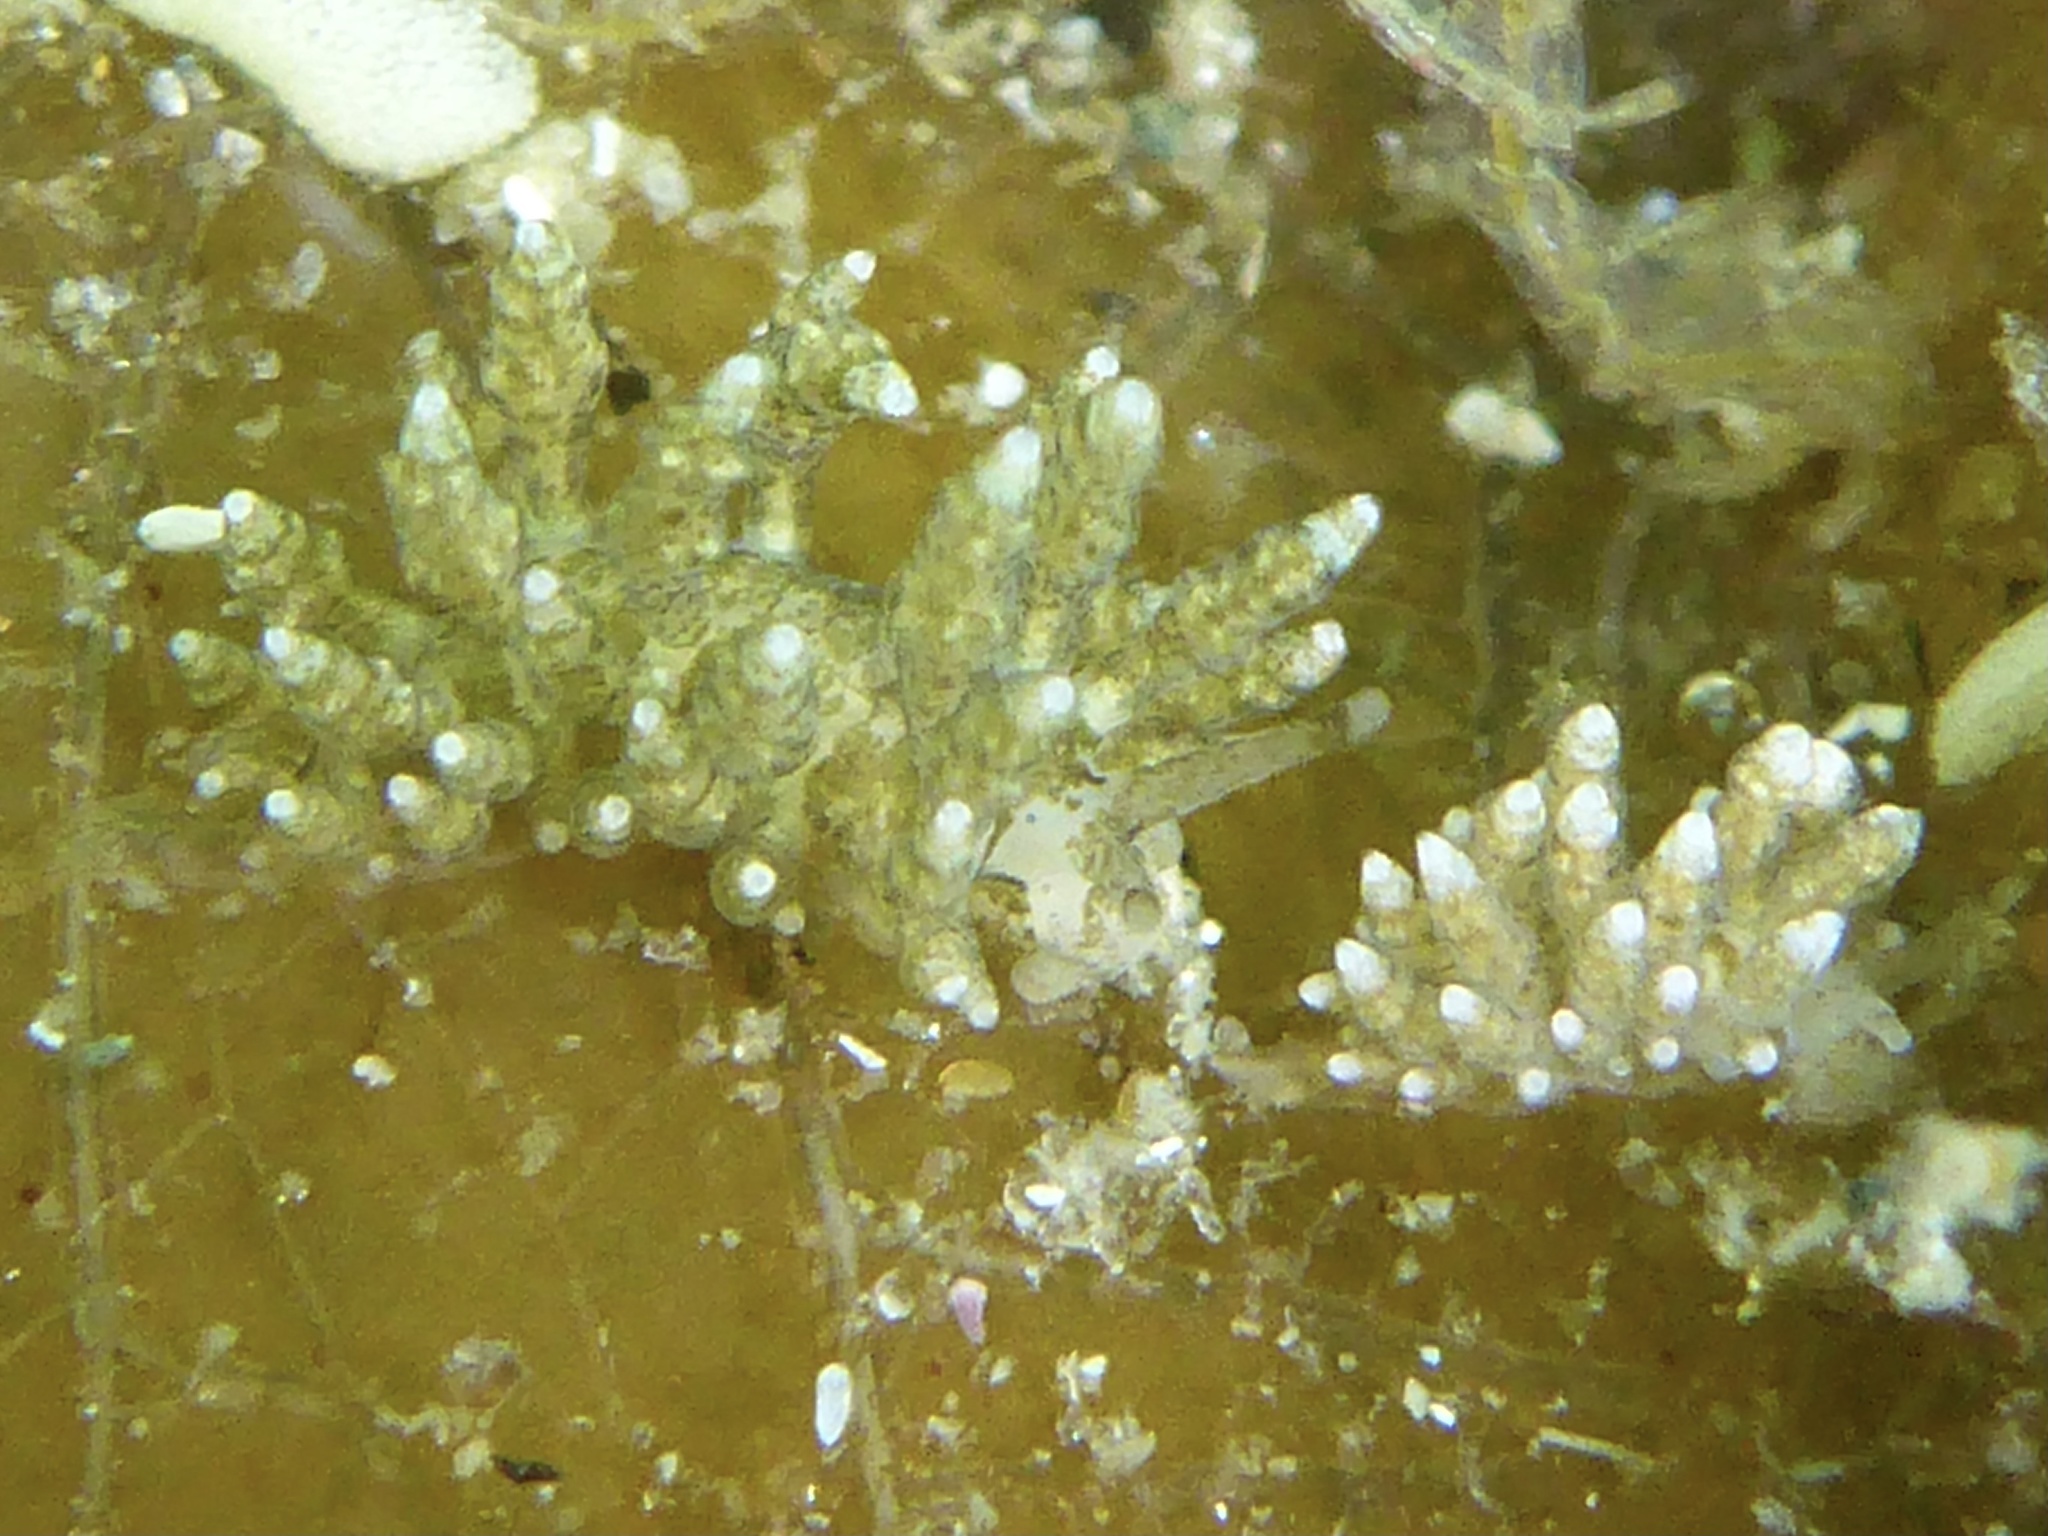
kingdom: Animalia
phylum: Mollusca
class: Gastropoda
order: Nudibranchia
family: Eubranchidae
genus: Eubranchus
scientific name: Eubranchus rustyus
